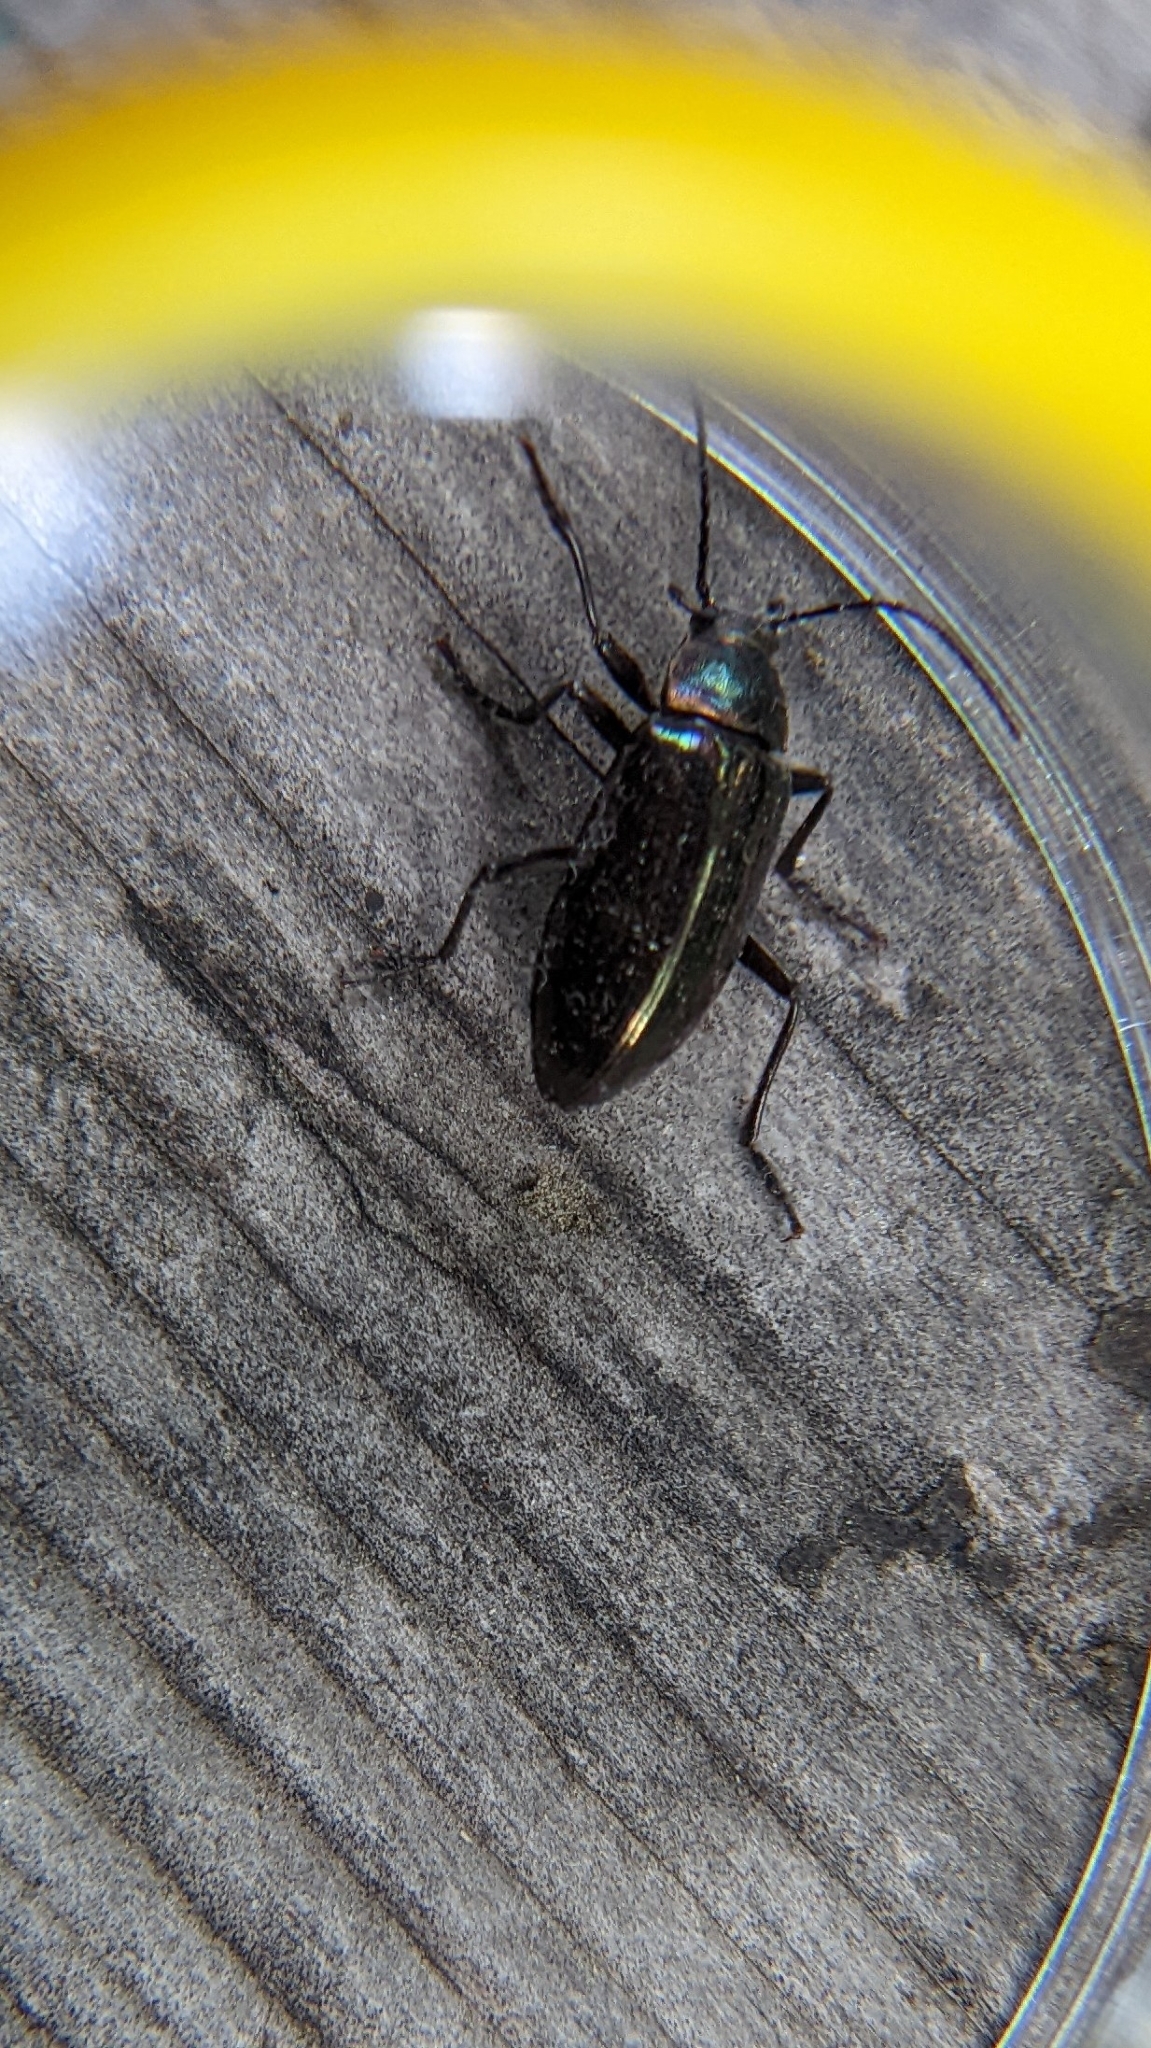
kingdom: Animalia
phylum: Arthropoda
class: Insecta
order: Coleoptera
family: Tenebrionidae
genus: Tarpela
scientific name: Tarpela micans
